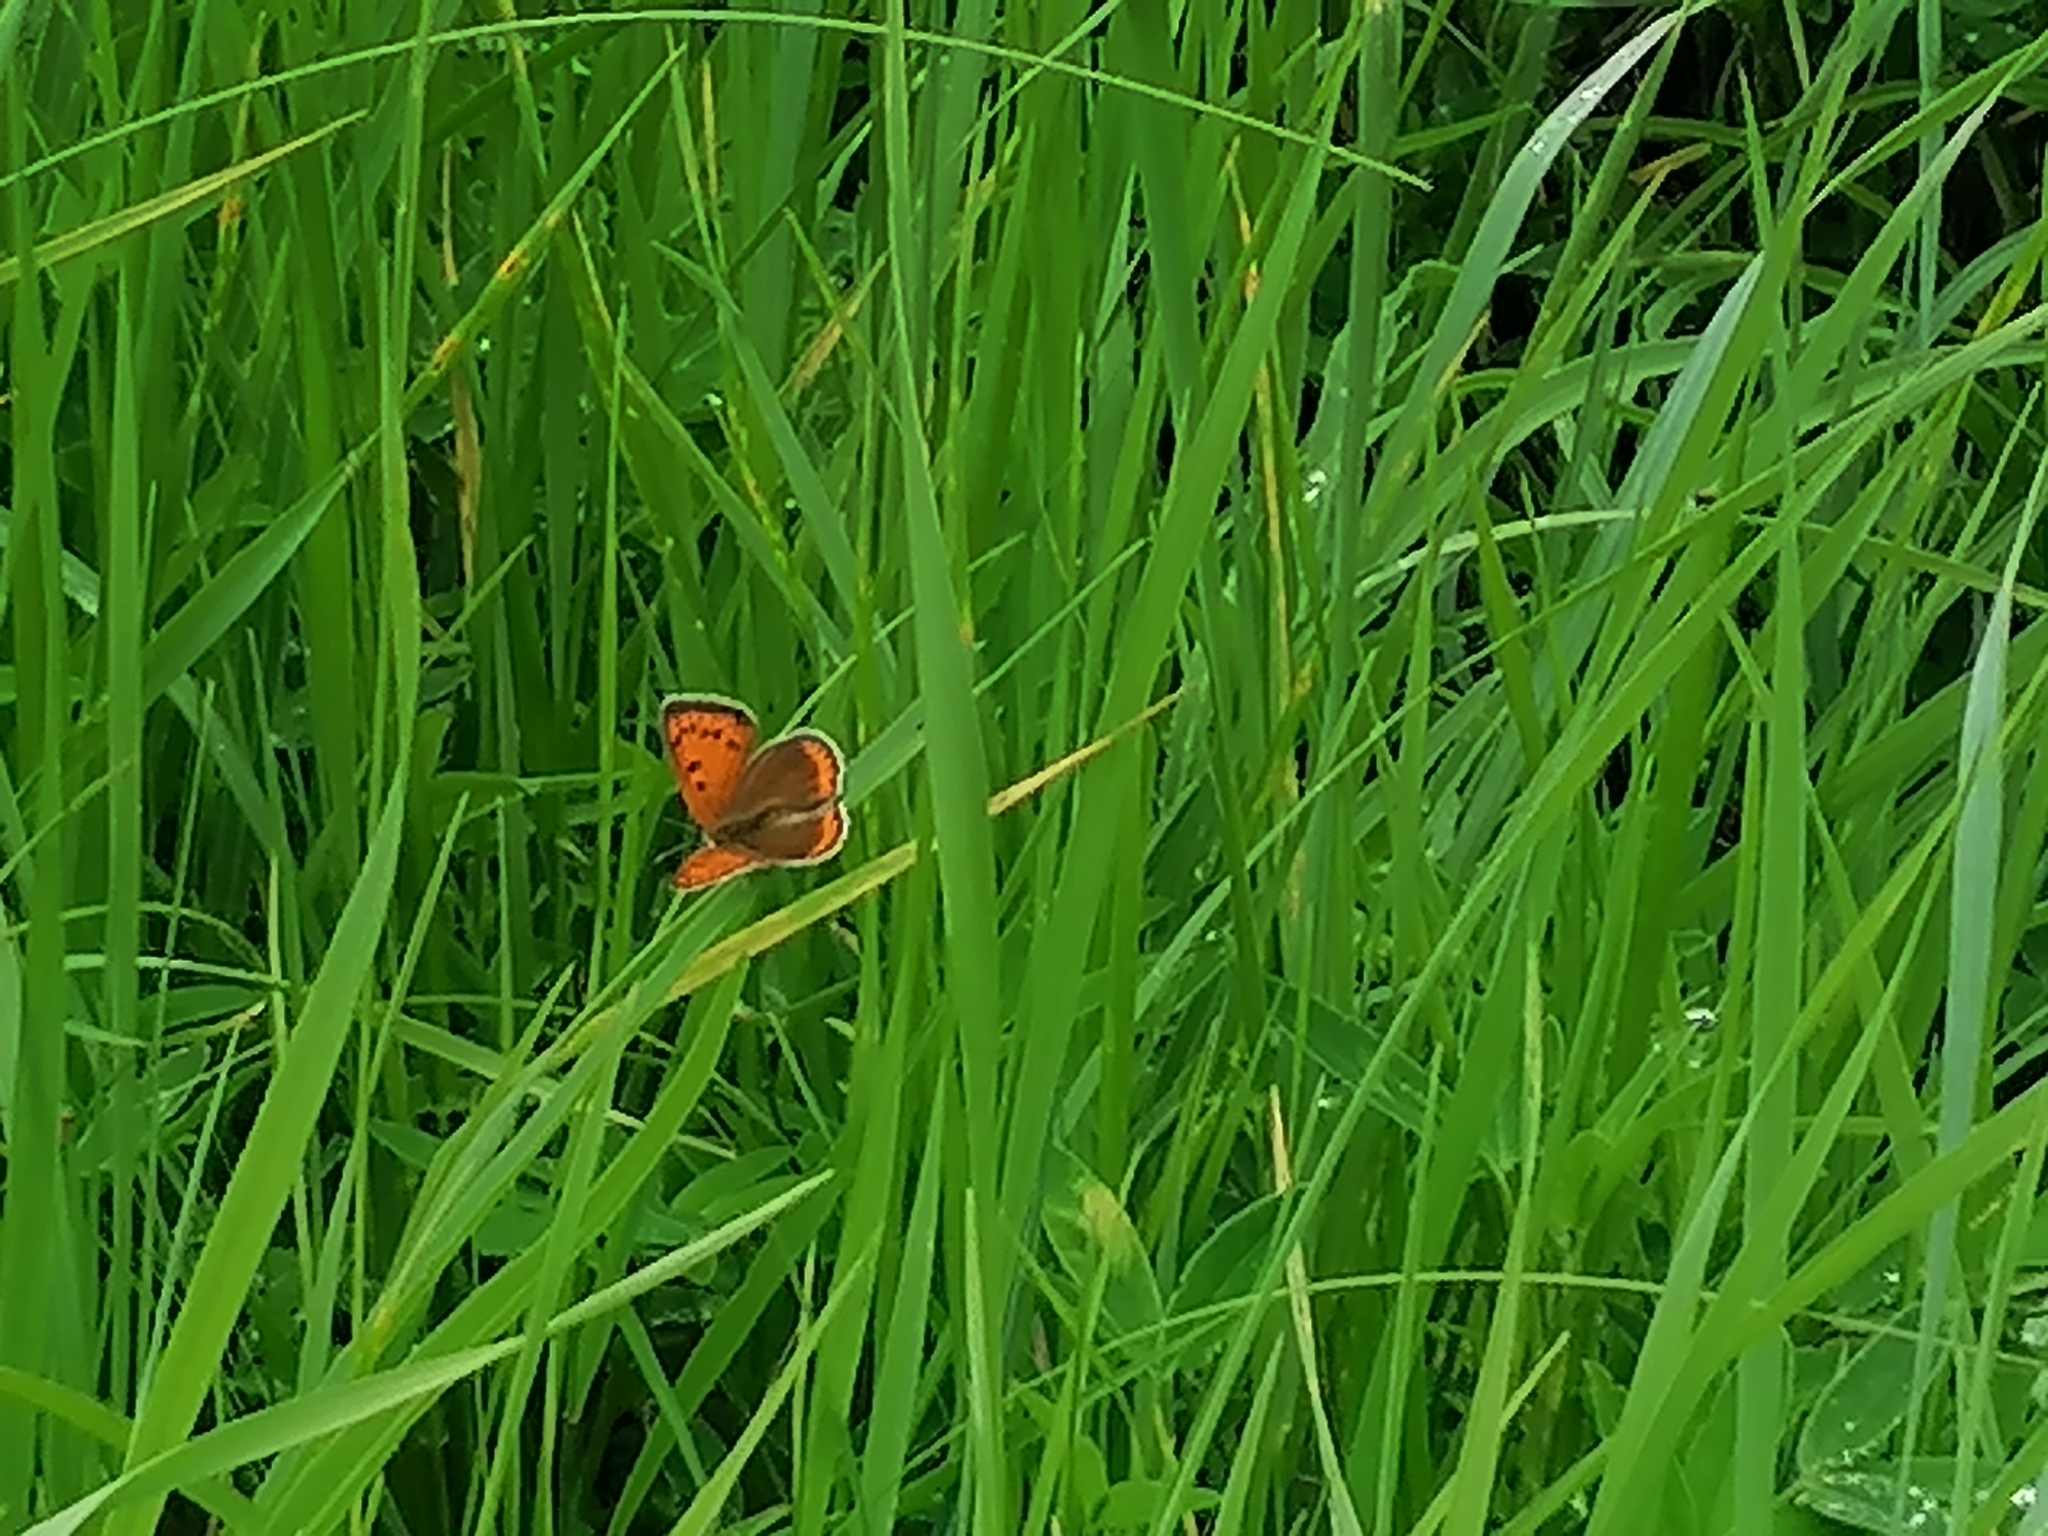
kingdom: Animalia
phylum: Arthropoda
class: Insecta
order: Lepidoptera
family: Lycaenidae
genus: Lycaena
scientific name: Lycaena dispar
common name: Large copper
